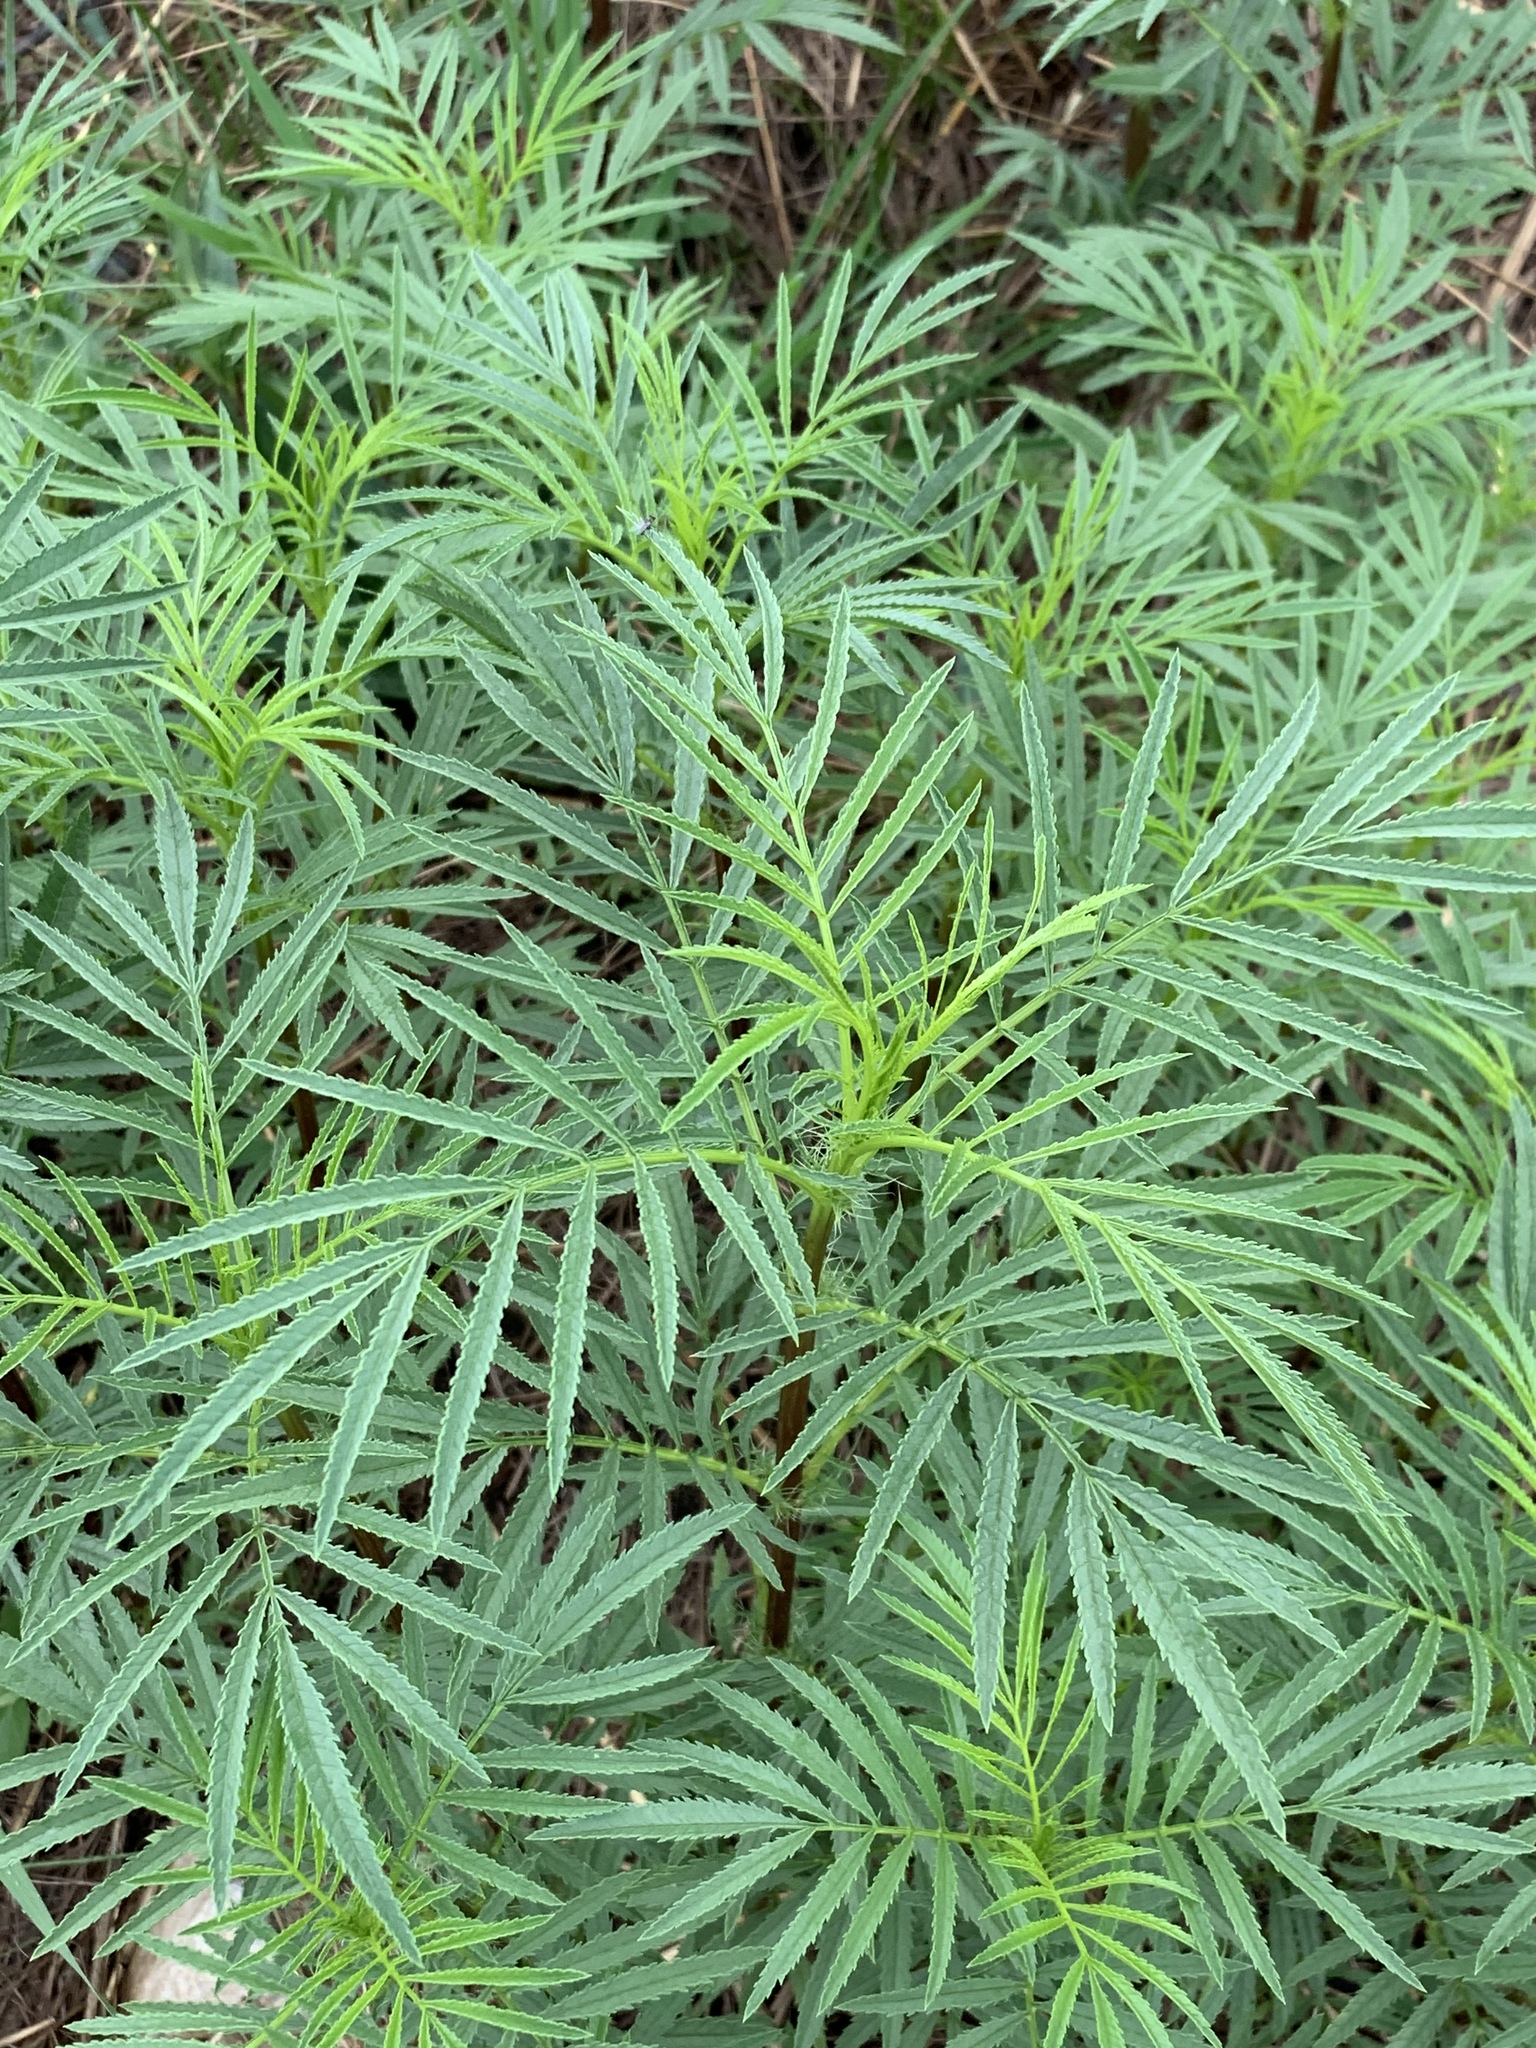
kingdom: Plantae
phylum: Tracheophyta
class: Magnoliopsida
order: Asterales
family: Asteraceae
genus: Tagetes
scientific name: Tagetes minuta
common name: Muster john henry
